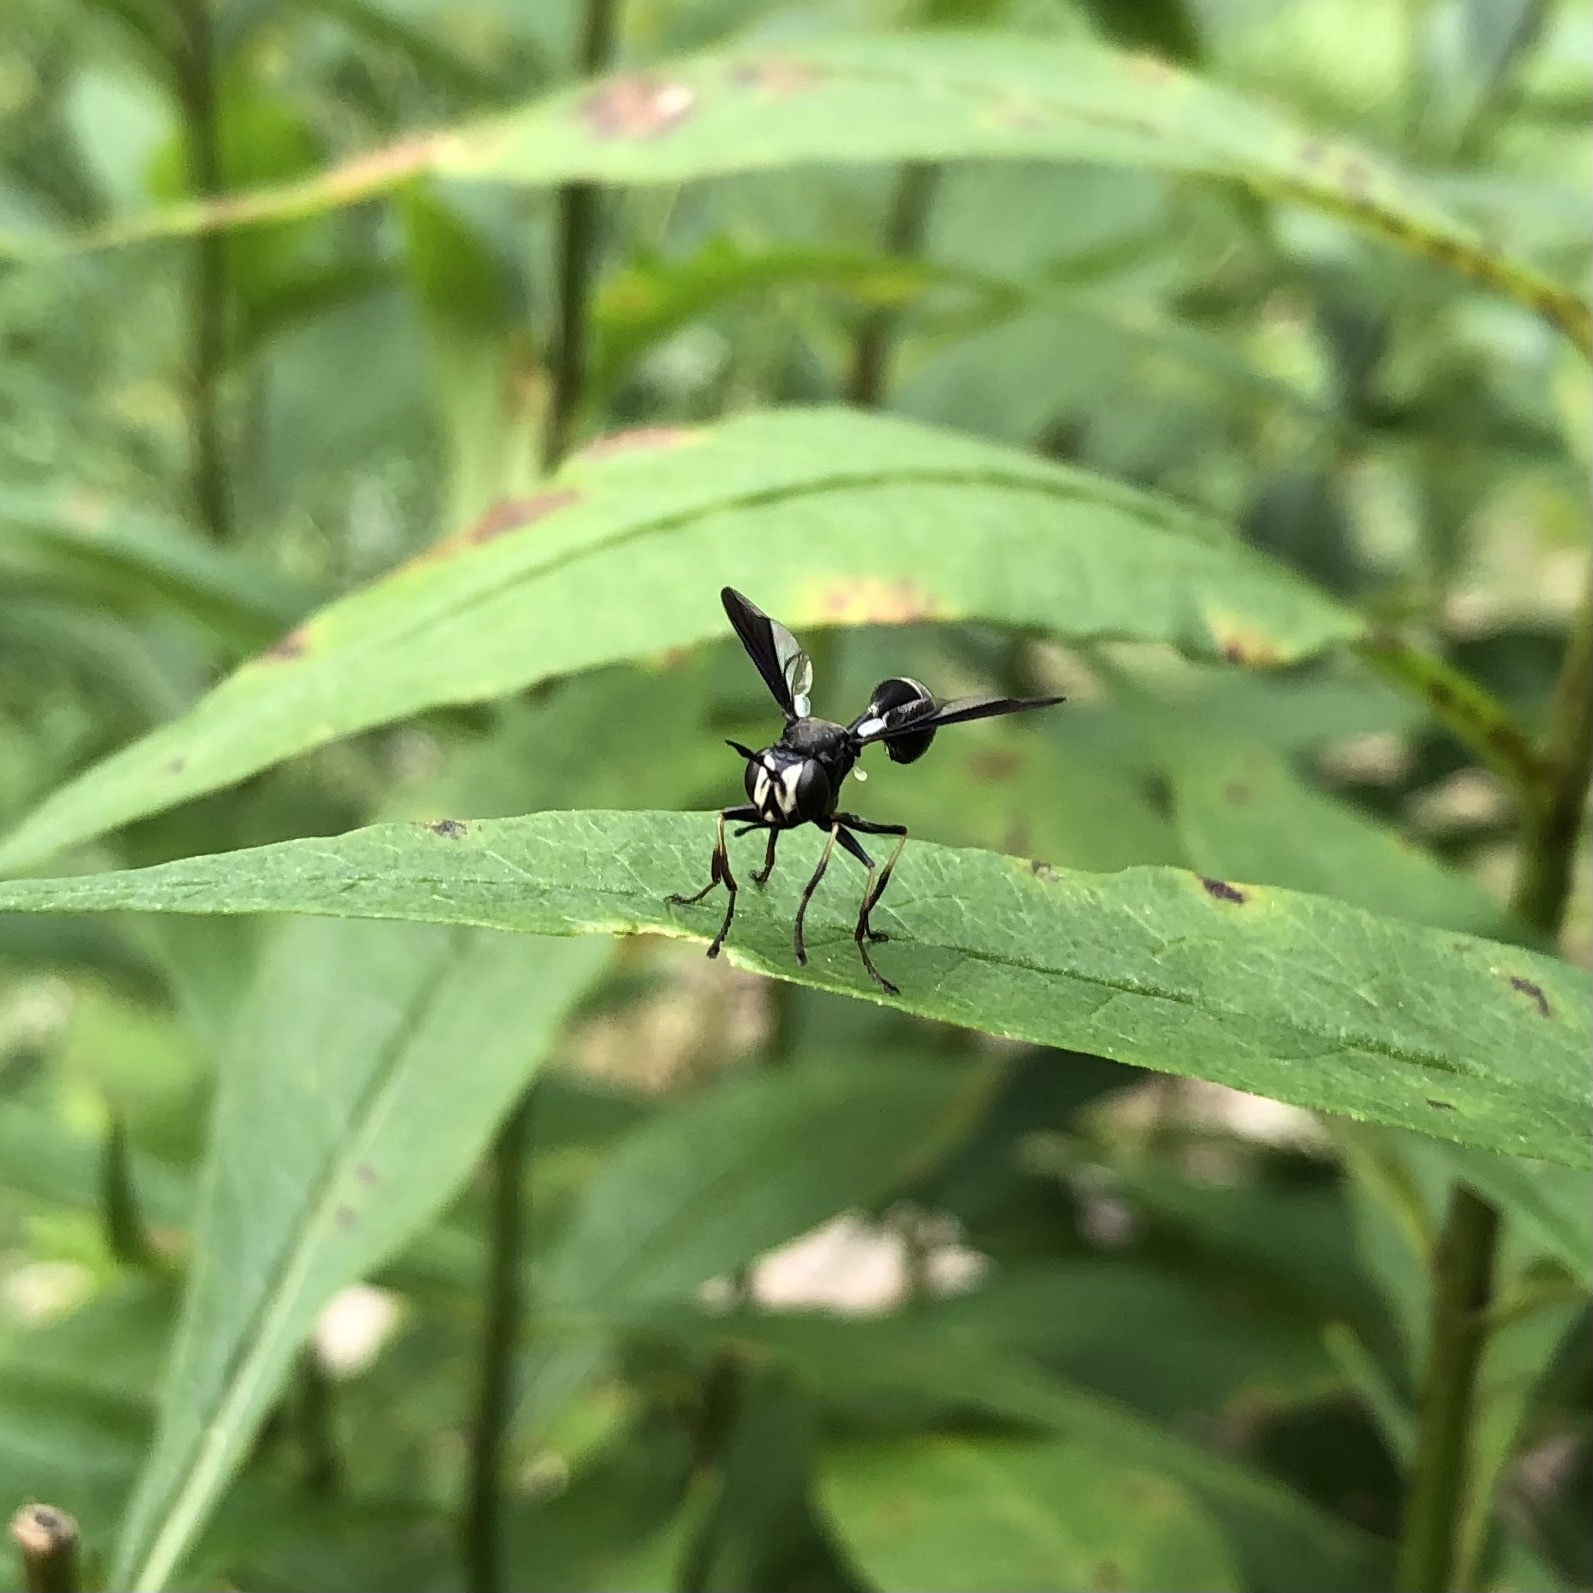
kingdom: Animalia
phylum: Arthropoda
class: Insecta
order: Diptera
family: Conopidae
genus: Physocephala
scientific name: Physocephala tibialis
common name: Common eastern physocephala
